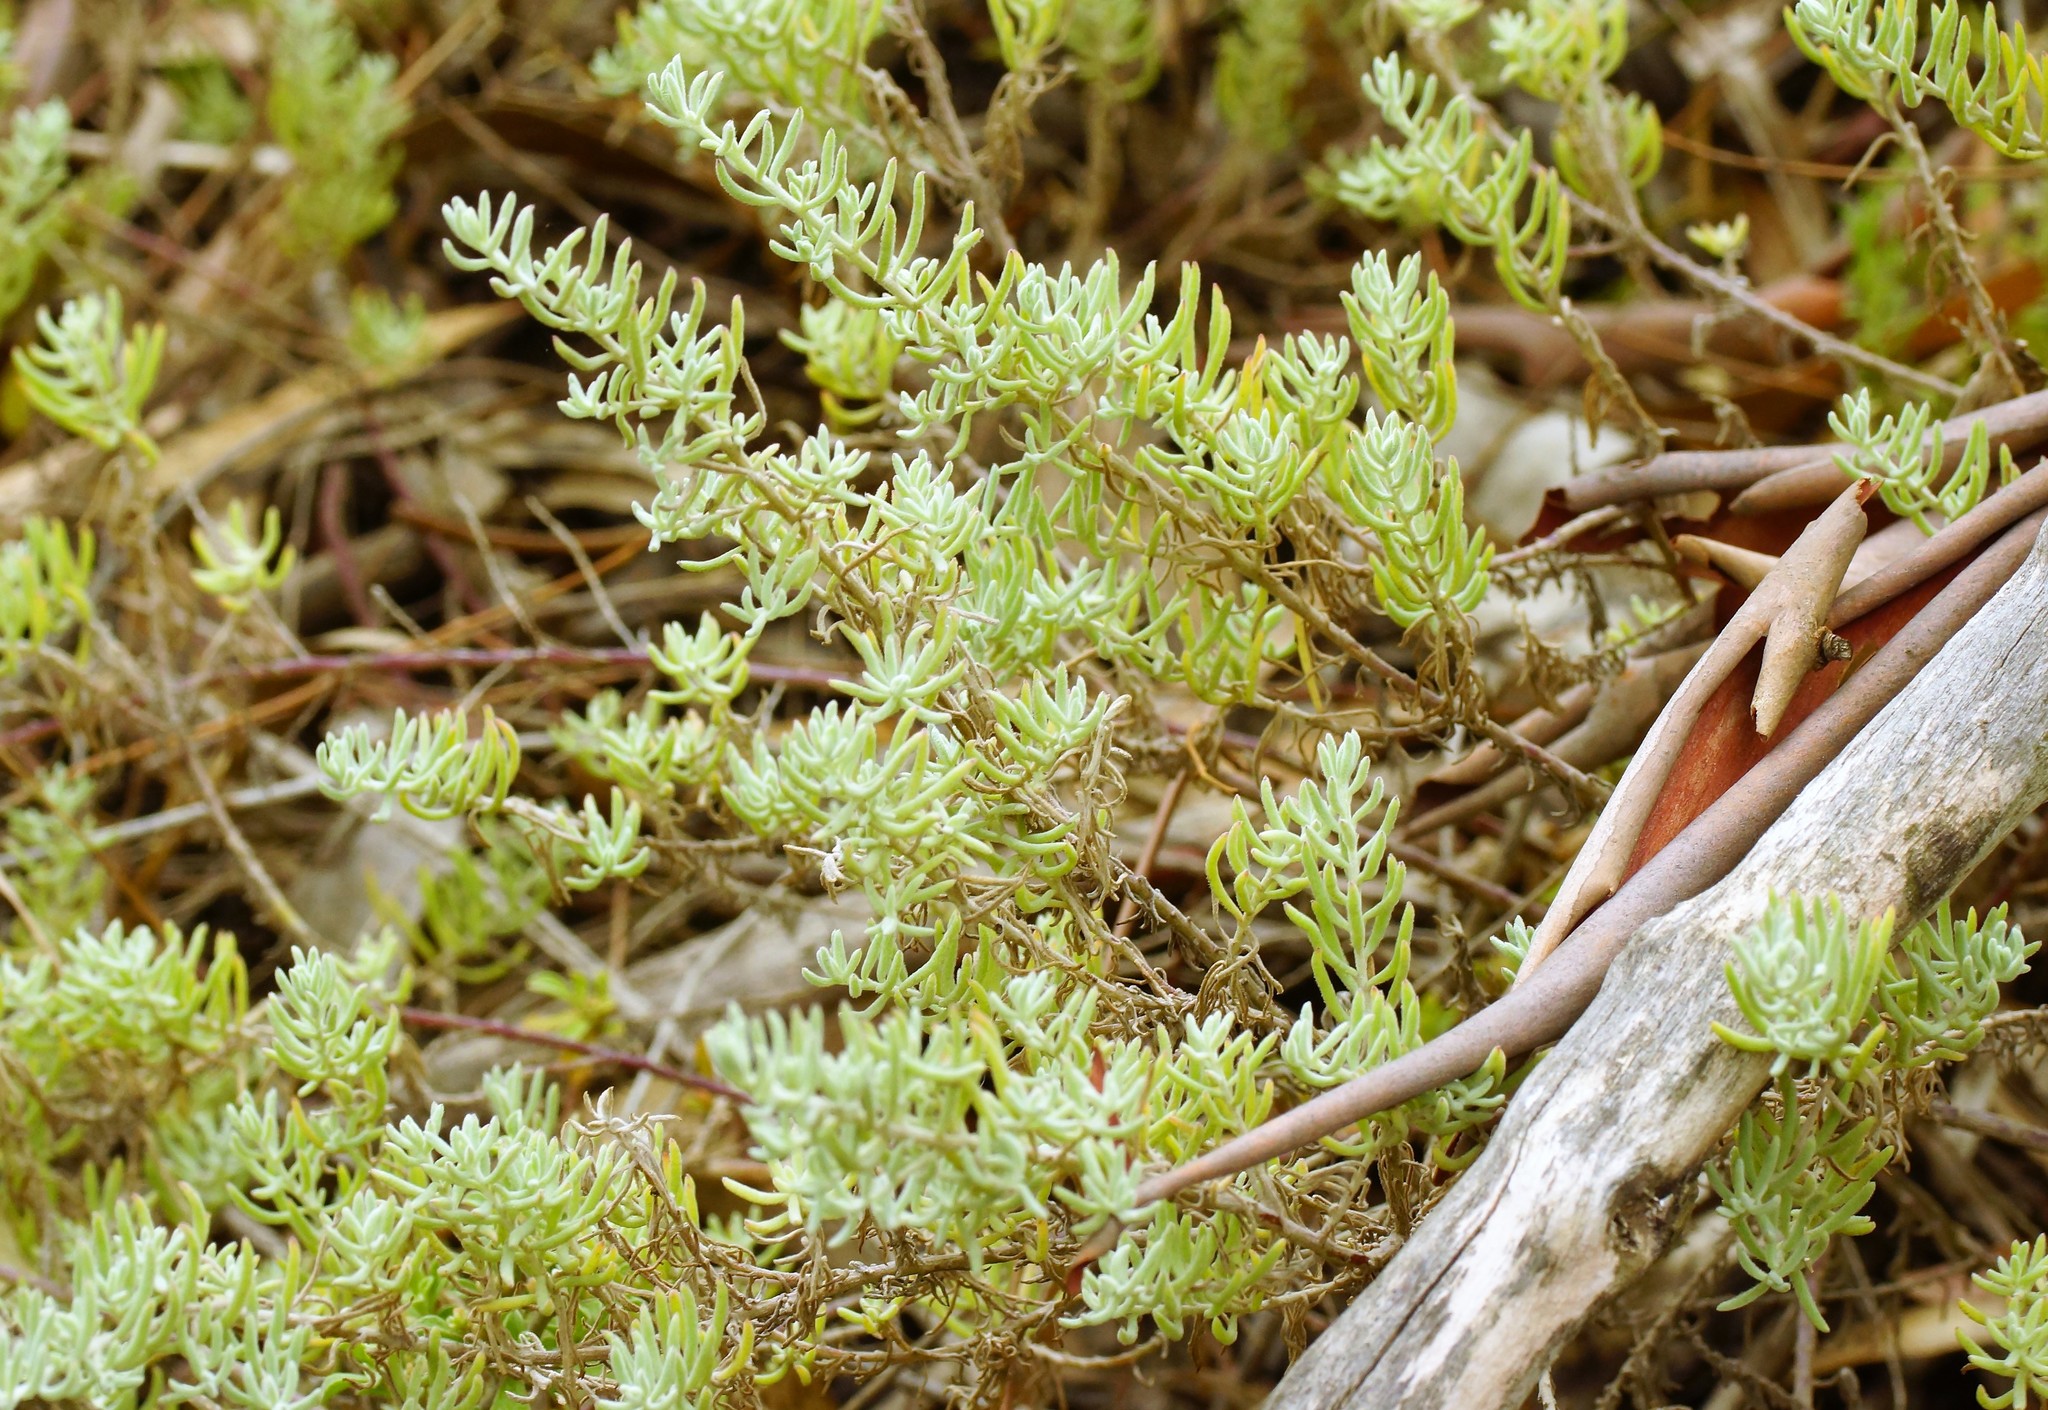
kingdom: Plantae
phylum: Tracheophyta
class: Magnoliopsida
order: Caryophyllales
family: Amaranthaceae
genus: Enchylaena
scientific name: Enchylaena tomentosa
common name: Ruby saltbush
